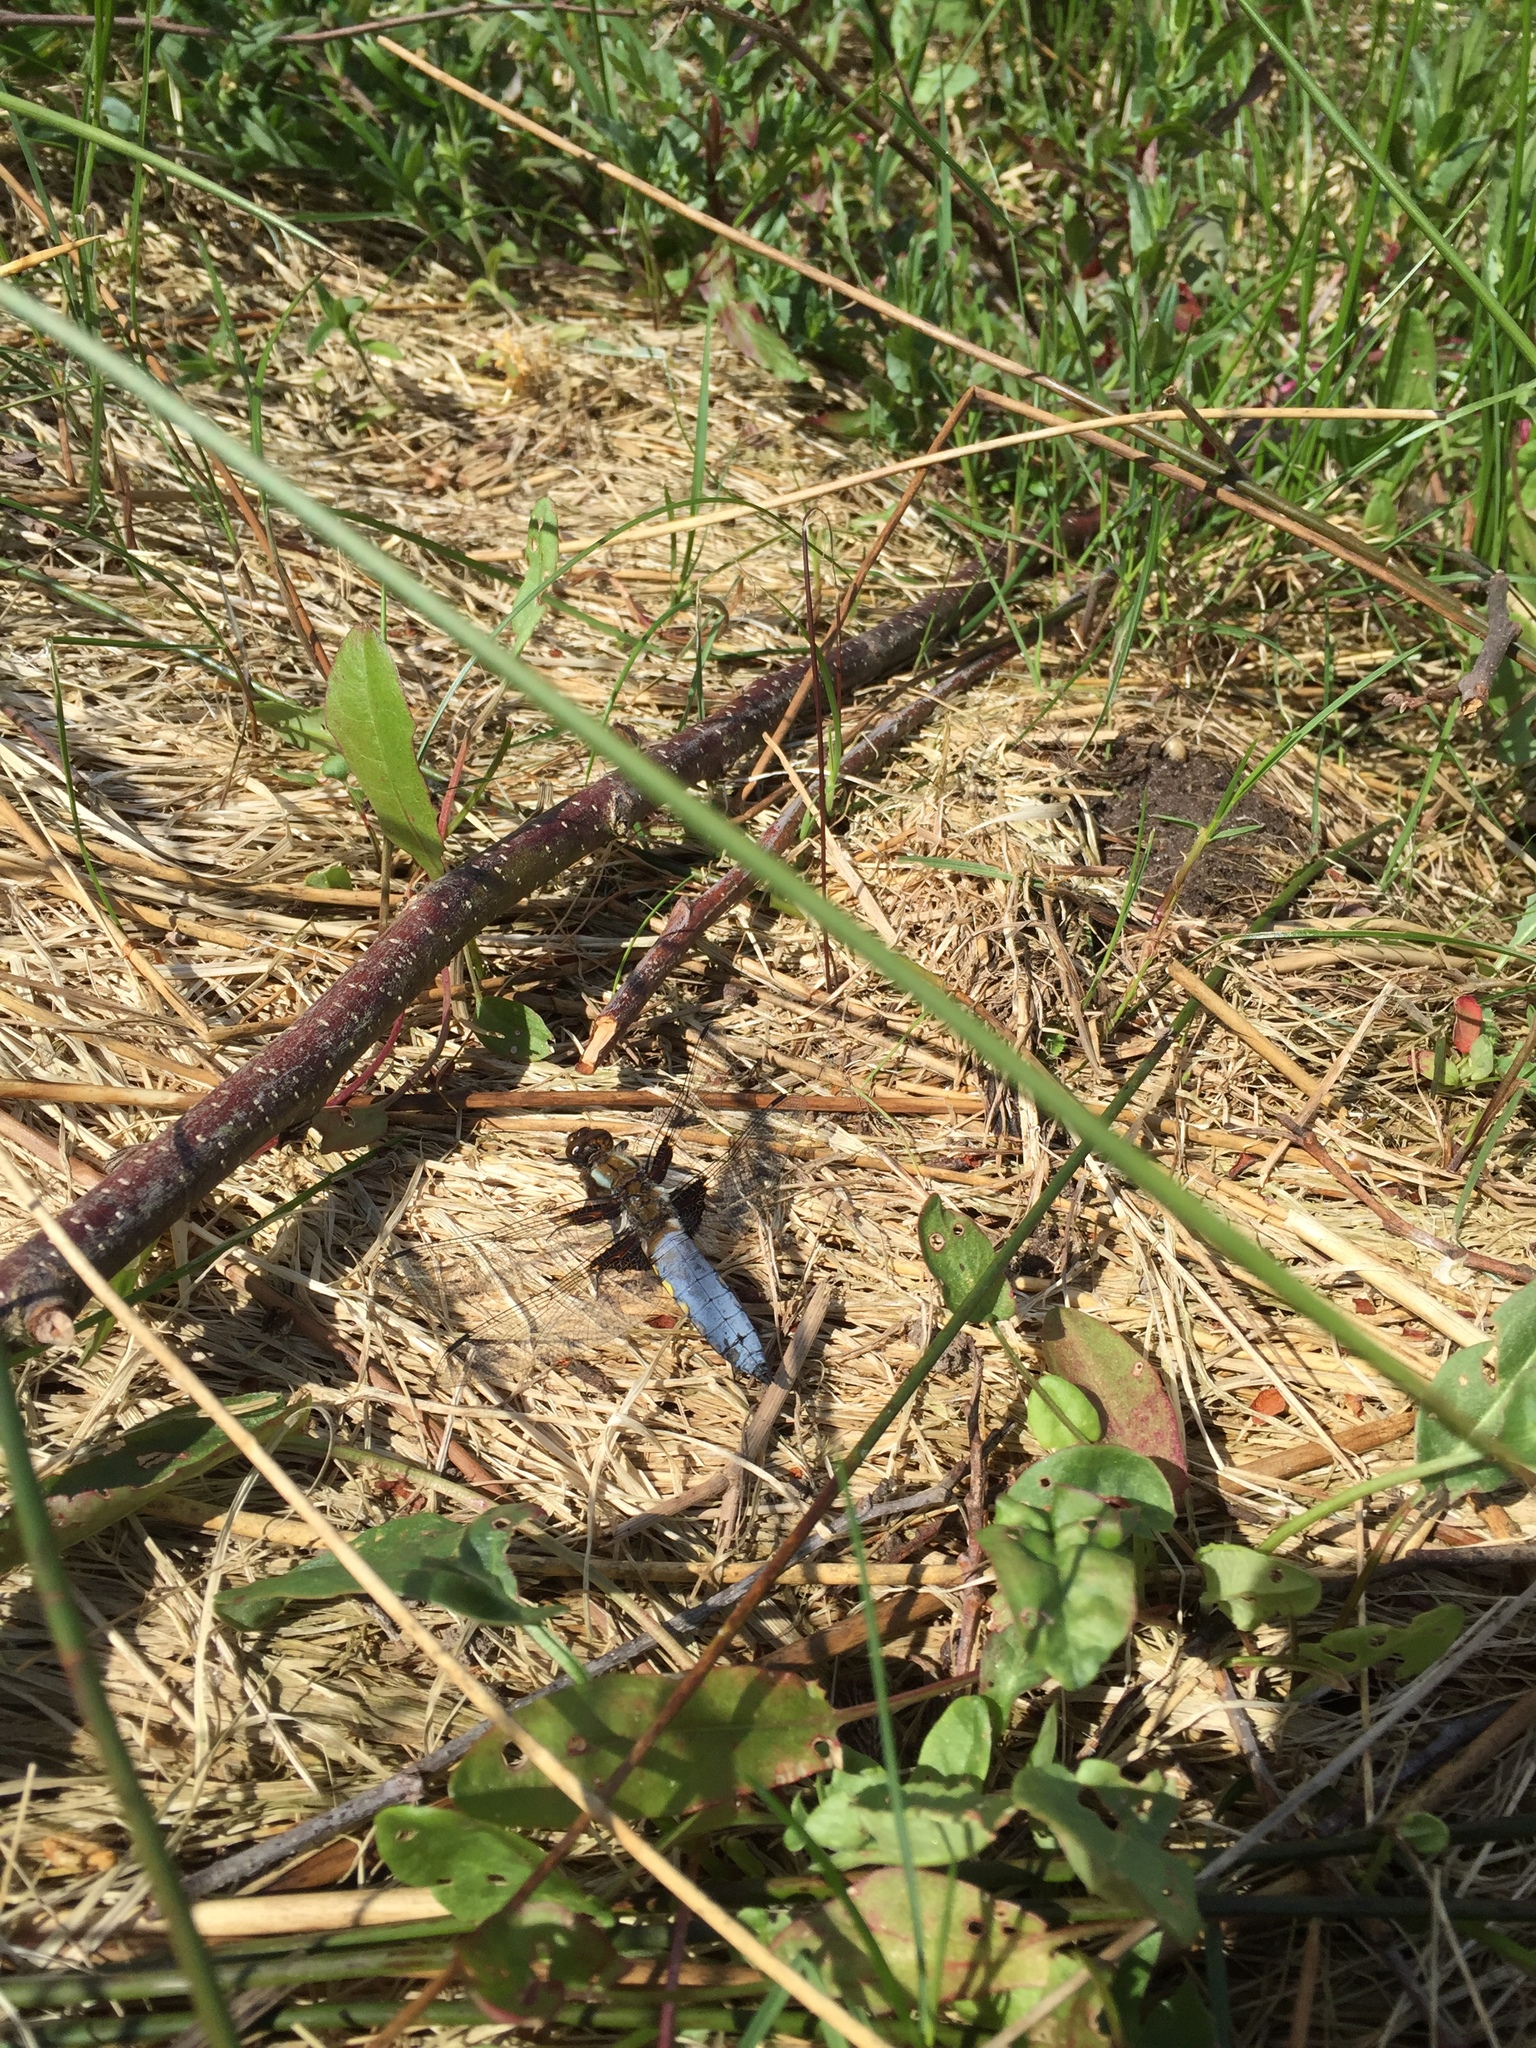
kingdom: Animalia
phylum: Arthropoda
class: Insecta
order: Odonata
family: Libellulidae
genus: Libellula
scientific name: Libellula depressa
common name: Broad-bodied chaser
